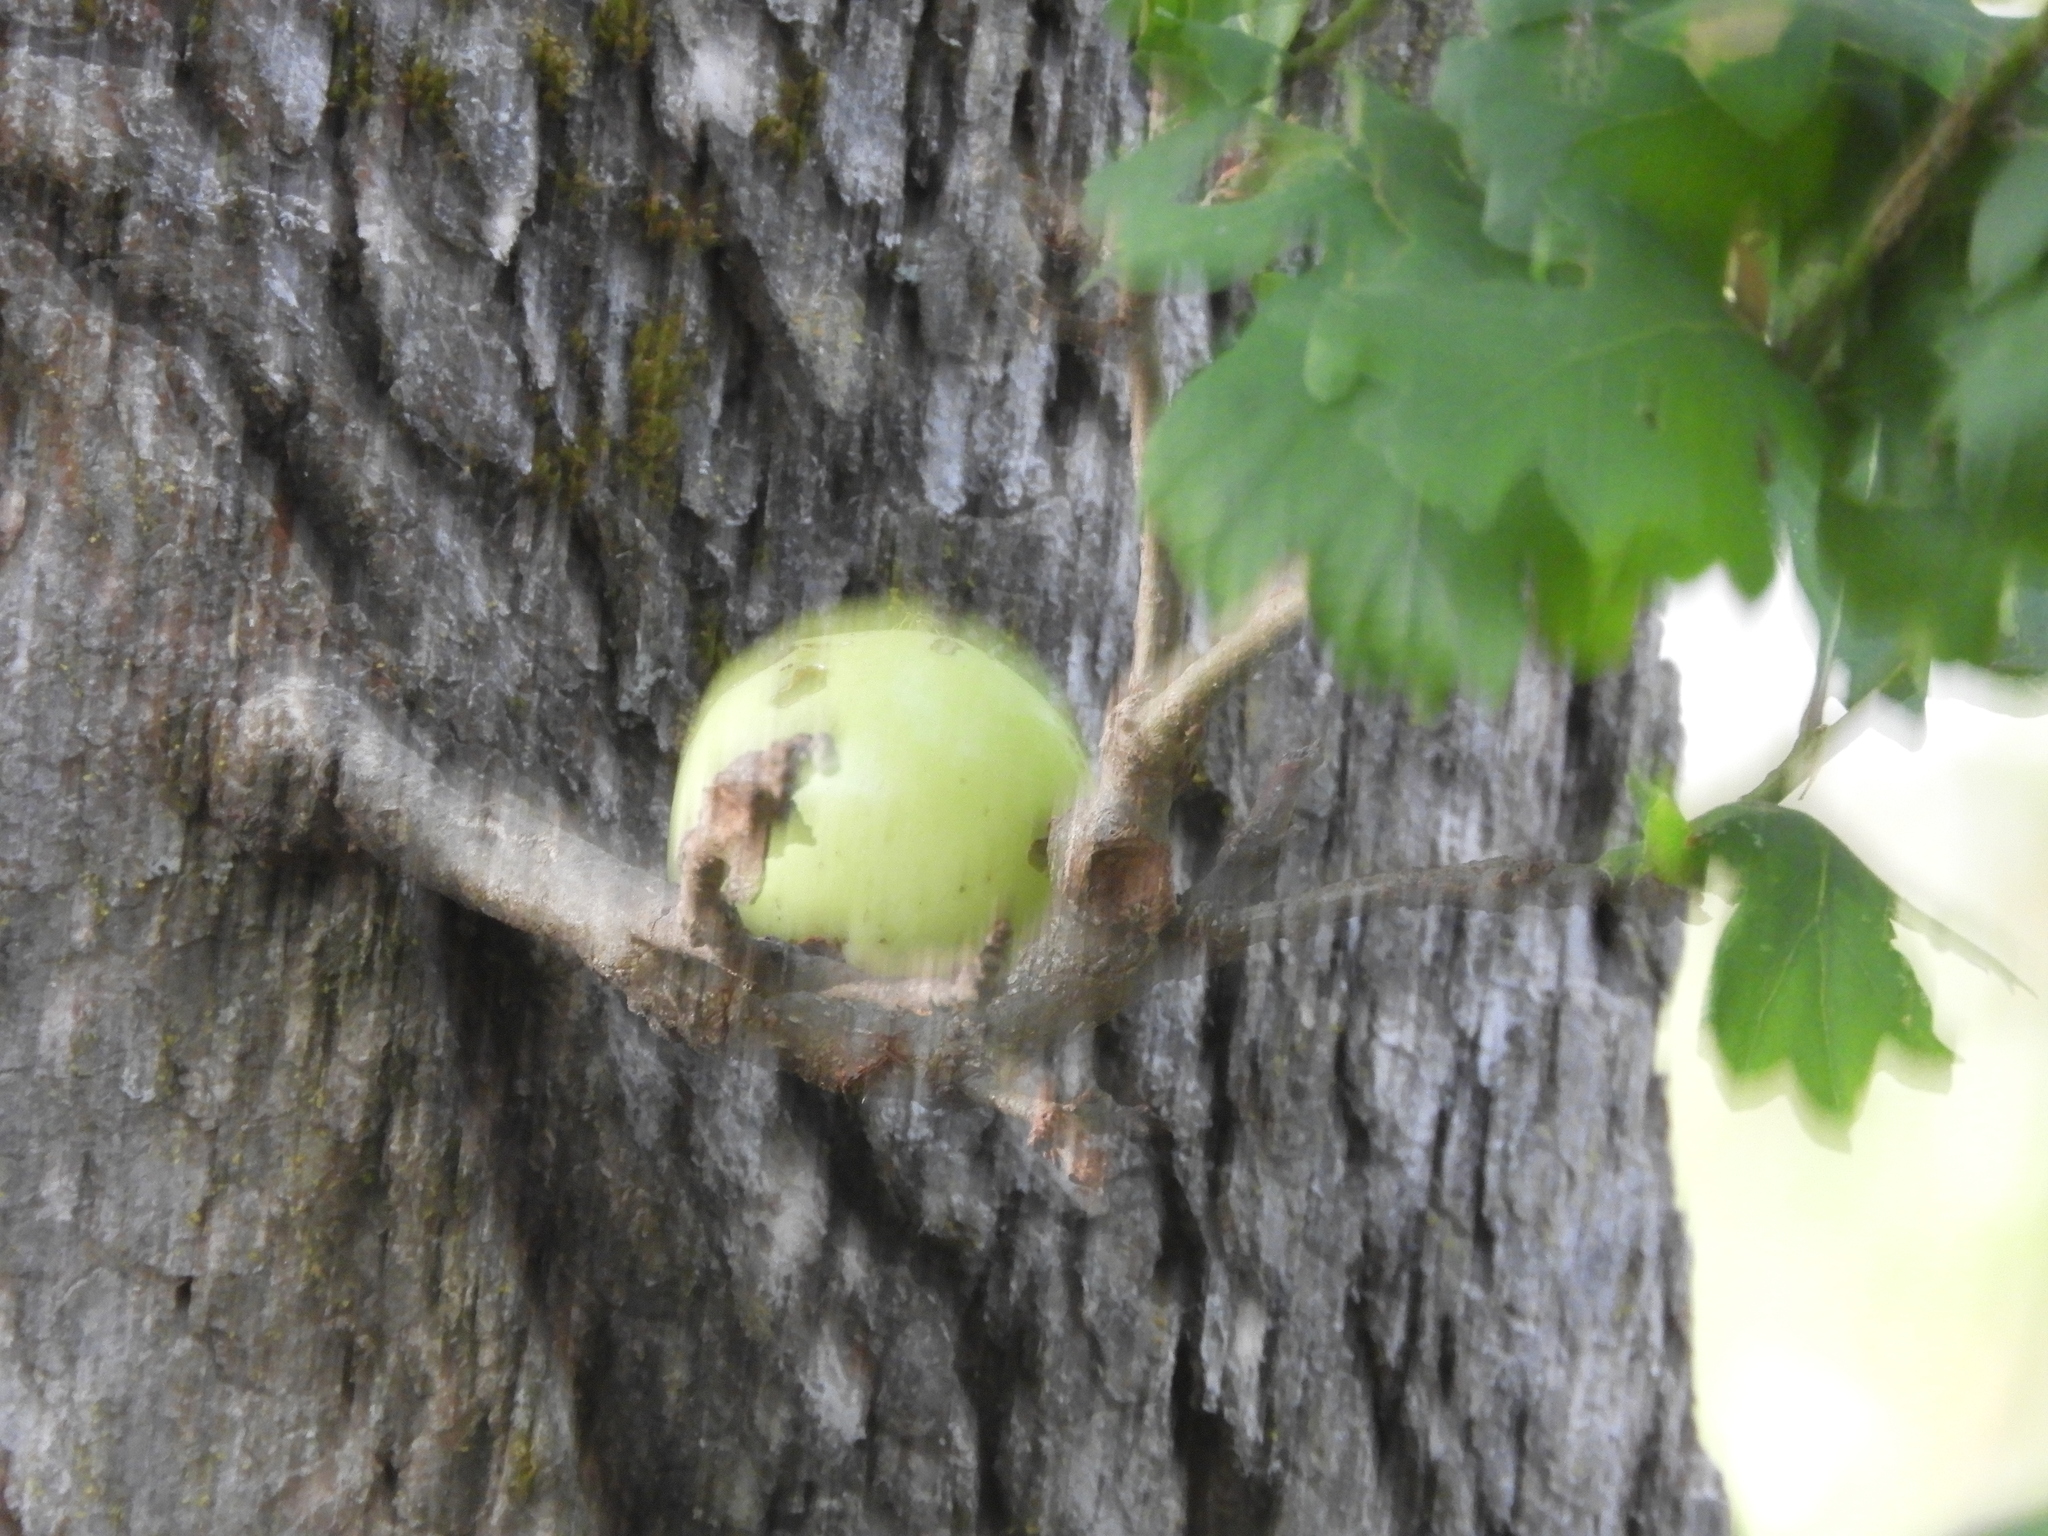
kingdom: Animalia
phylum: Arthropoda
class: Insecta
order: Hymenoptera
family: Cynipidae
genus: Andricus
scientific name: Andricus quercuscalifornicus
